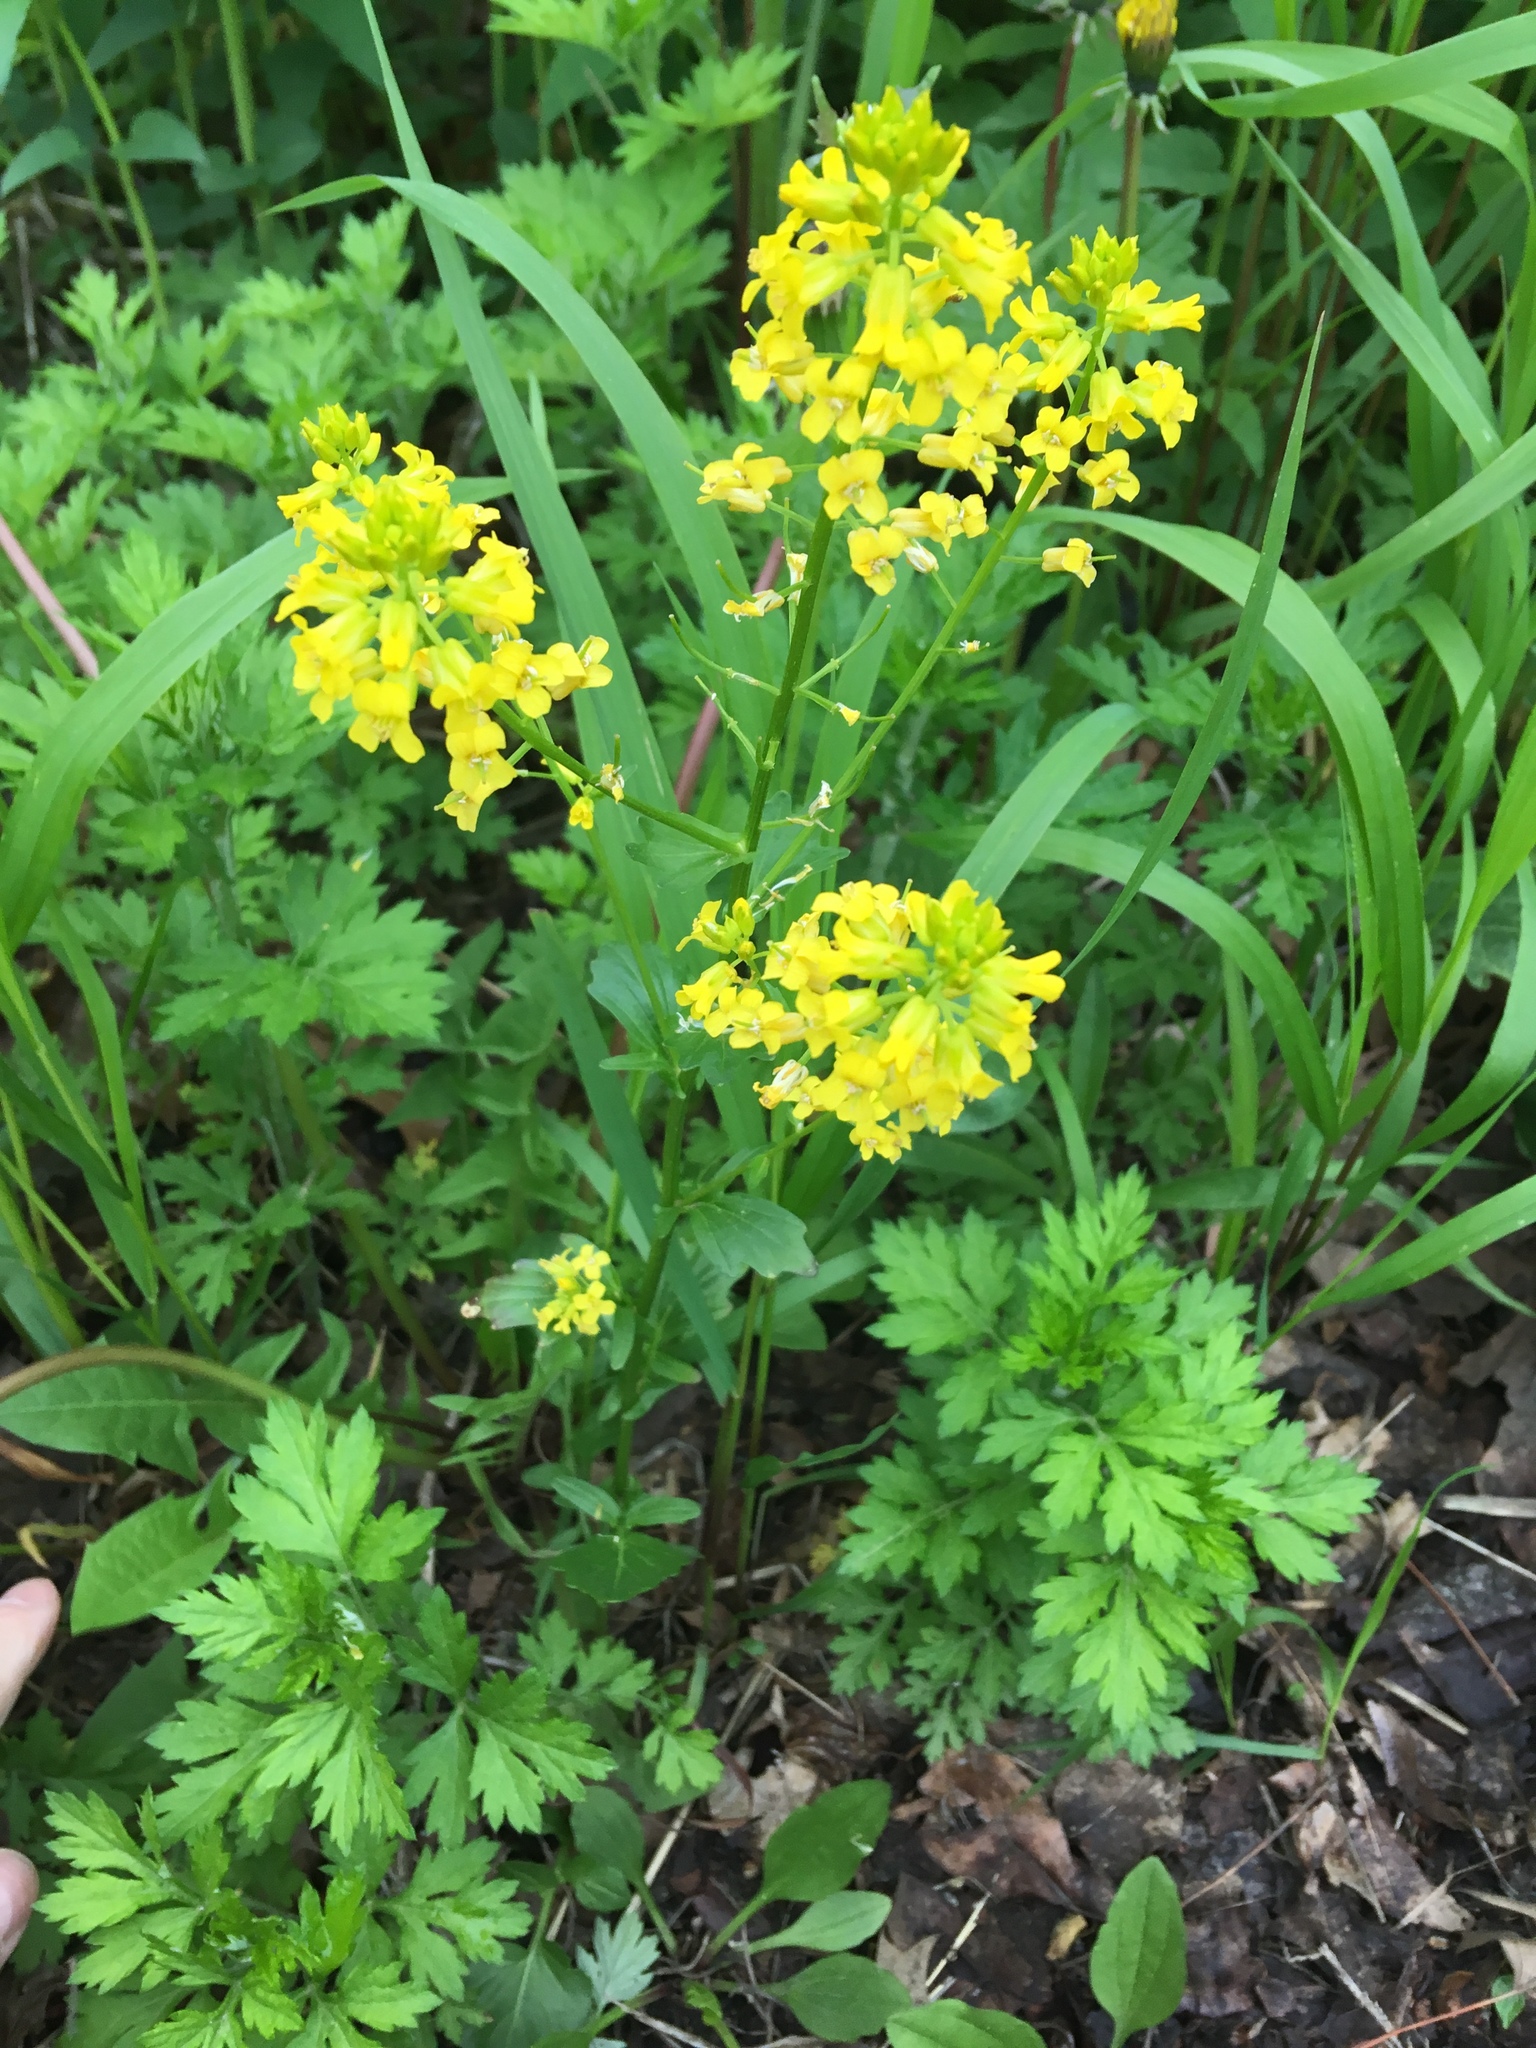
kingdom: Plantae
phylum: Tracheophyta
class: Magnoliopsida
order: Brassicales
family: Brassicaceae
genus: Barbarea
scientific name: Barbarea vulgaris
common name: Cressy-greens
